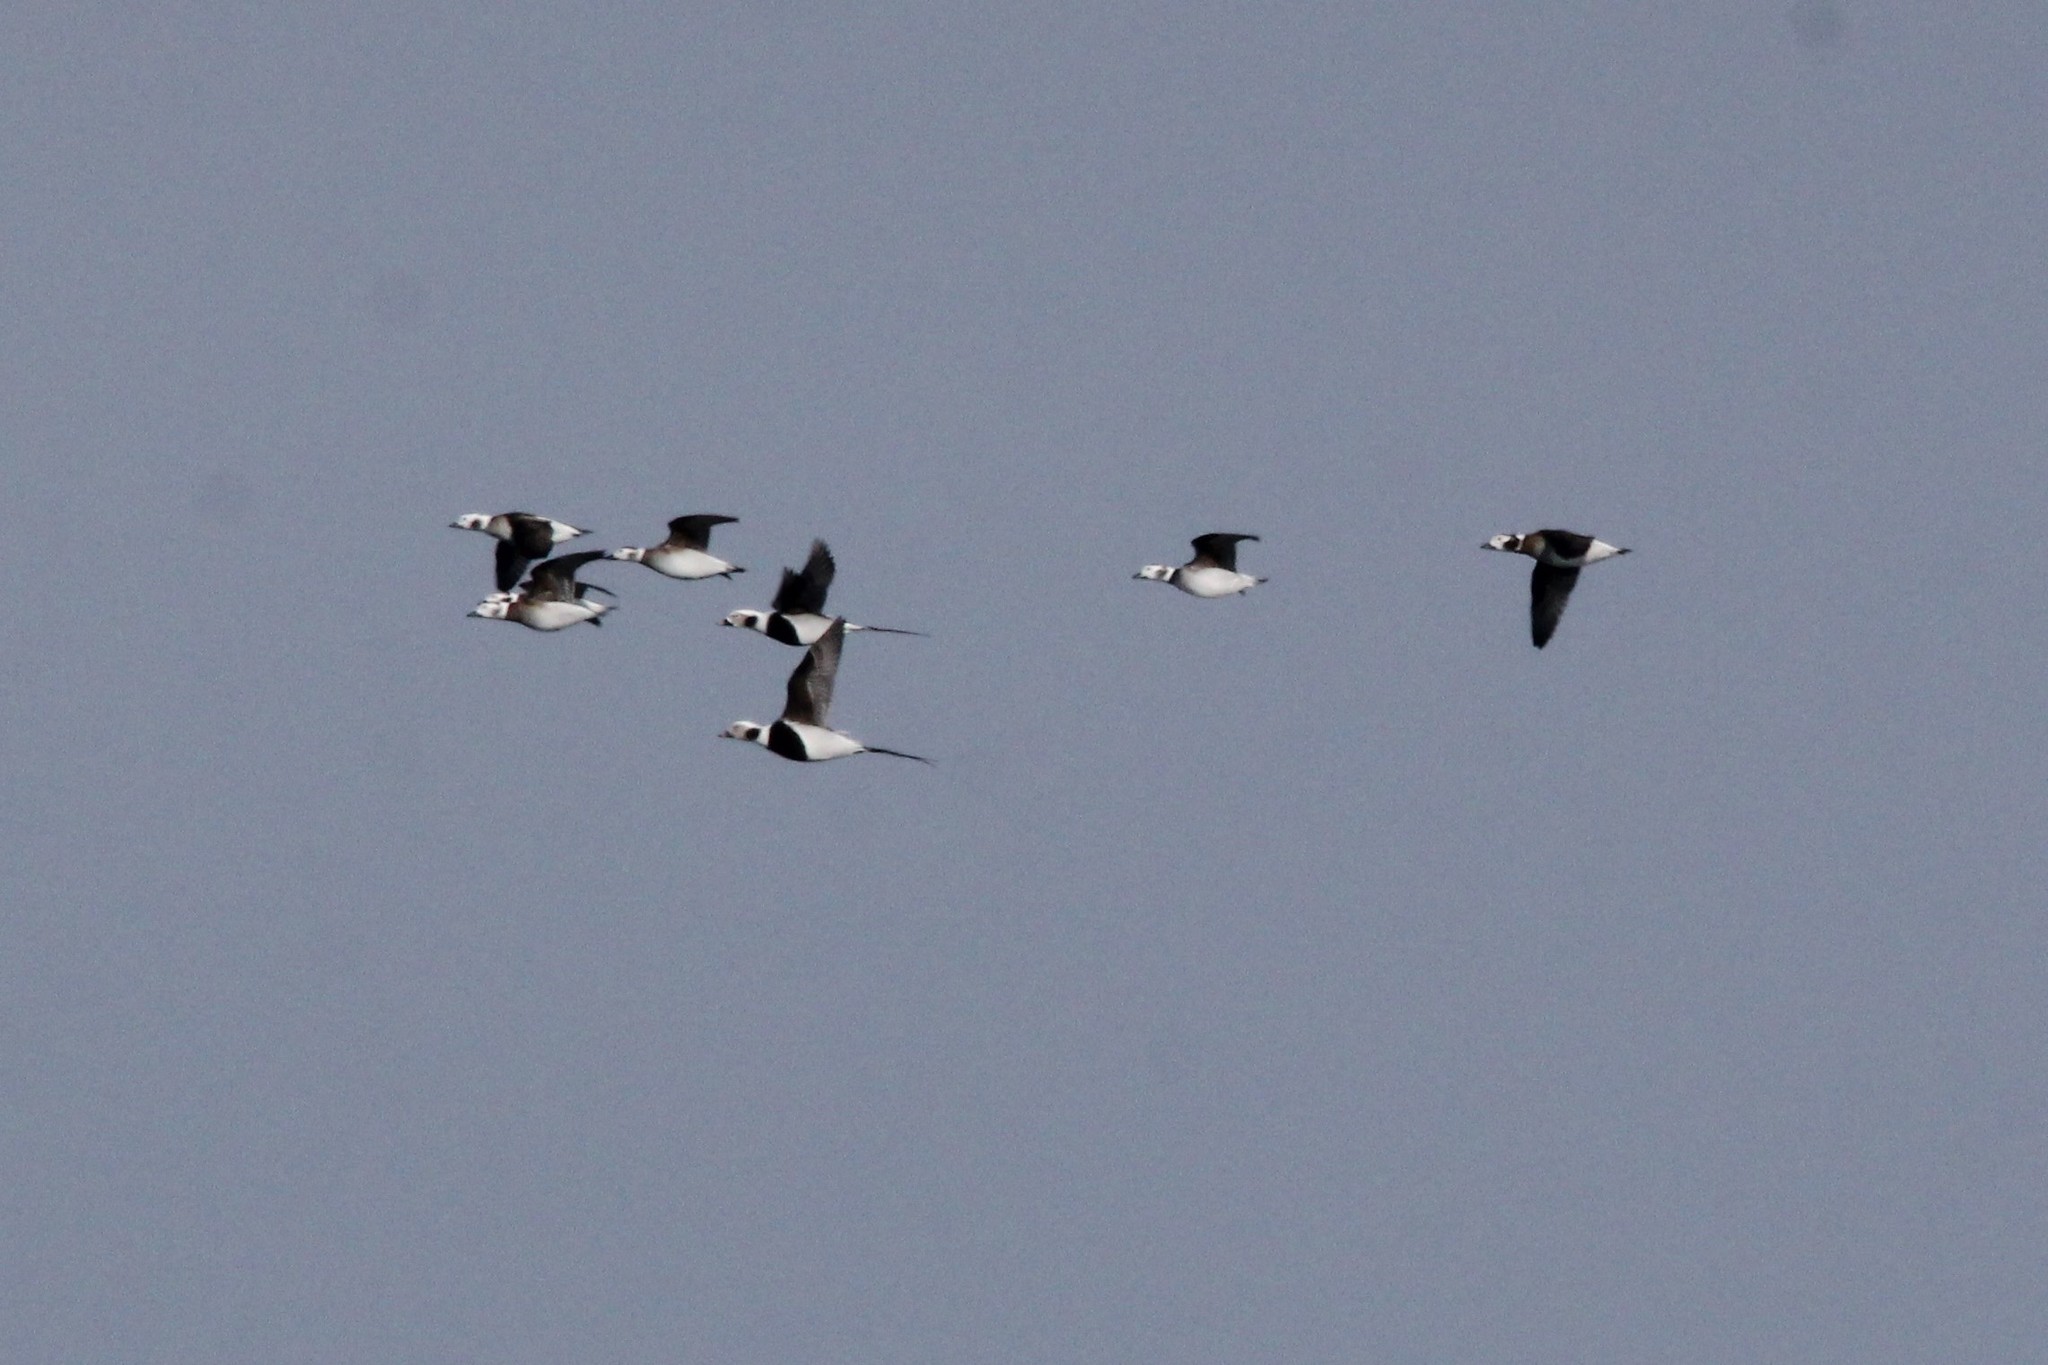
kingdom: Animalia
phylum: Chordata
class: Aves
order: Anseriformes
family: Anatidae
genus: Clangula
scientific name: Clangula hyemalis
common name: Long-tailed duck
